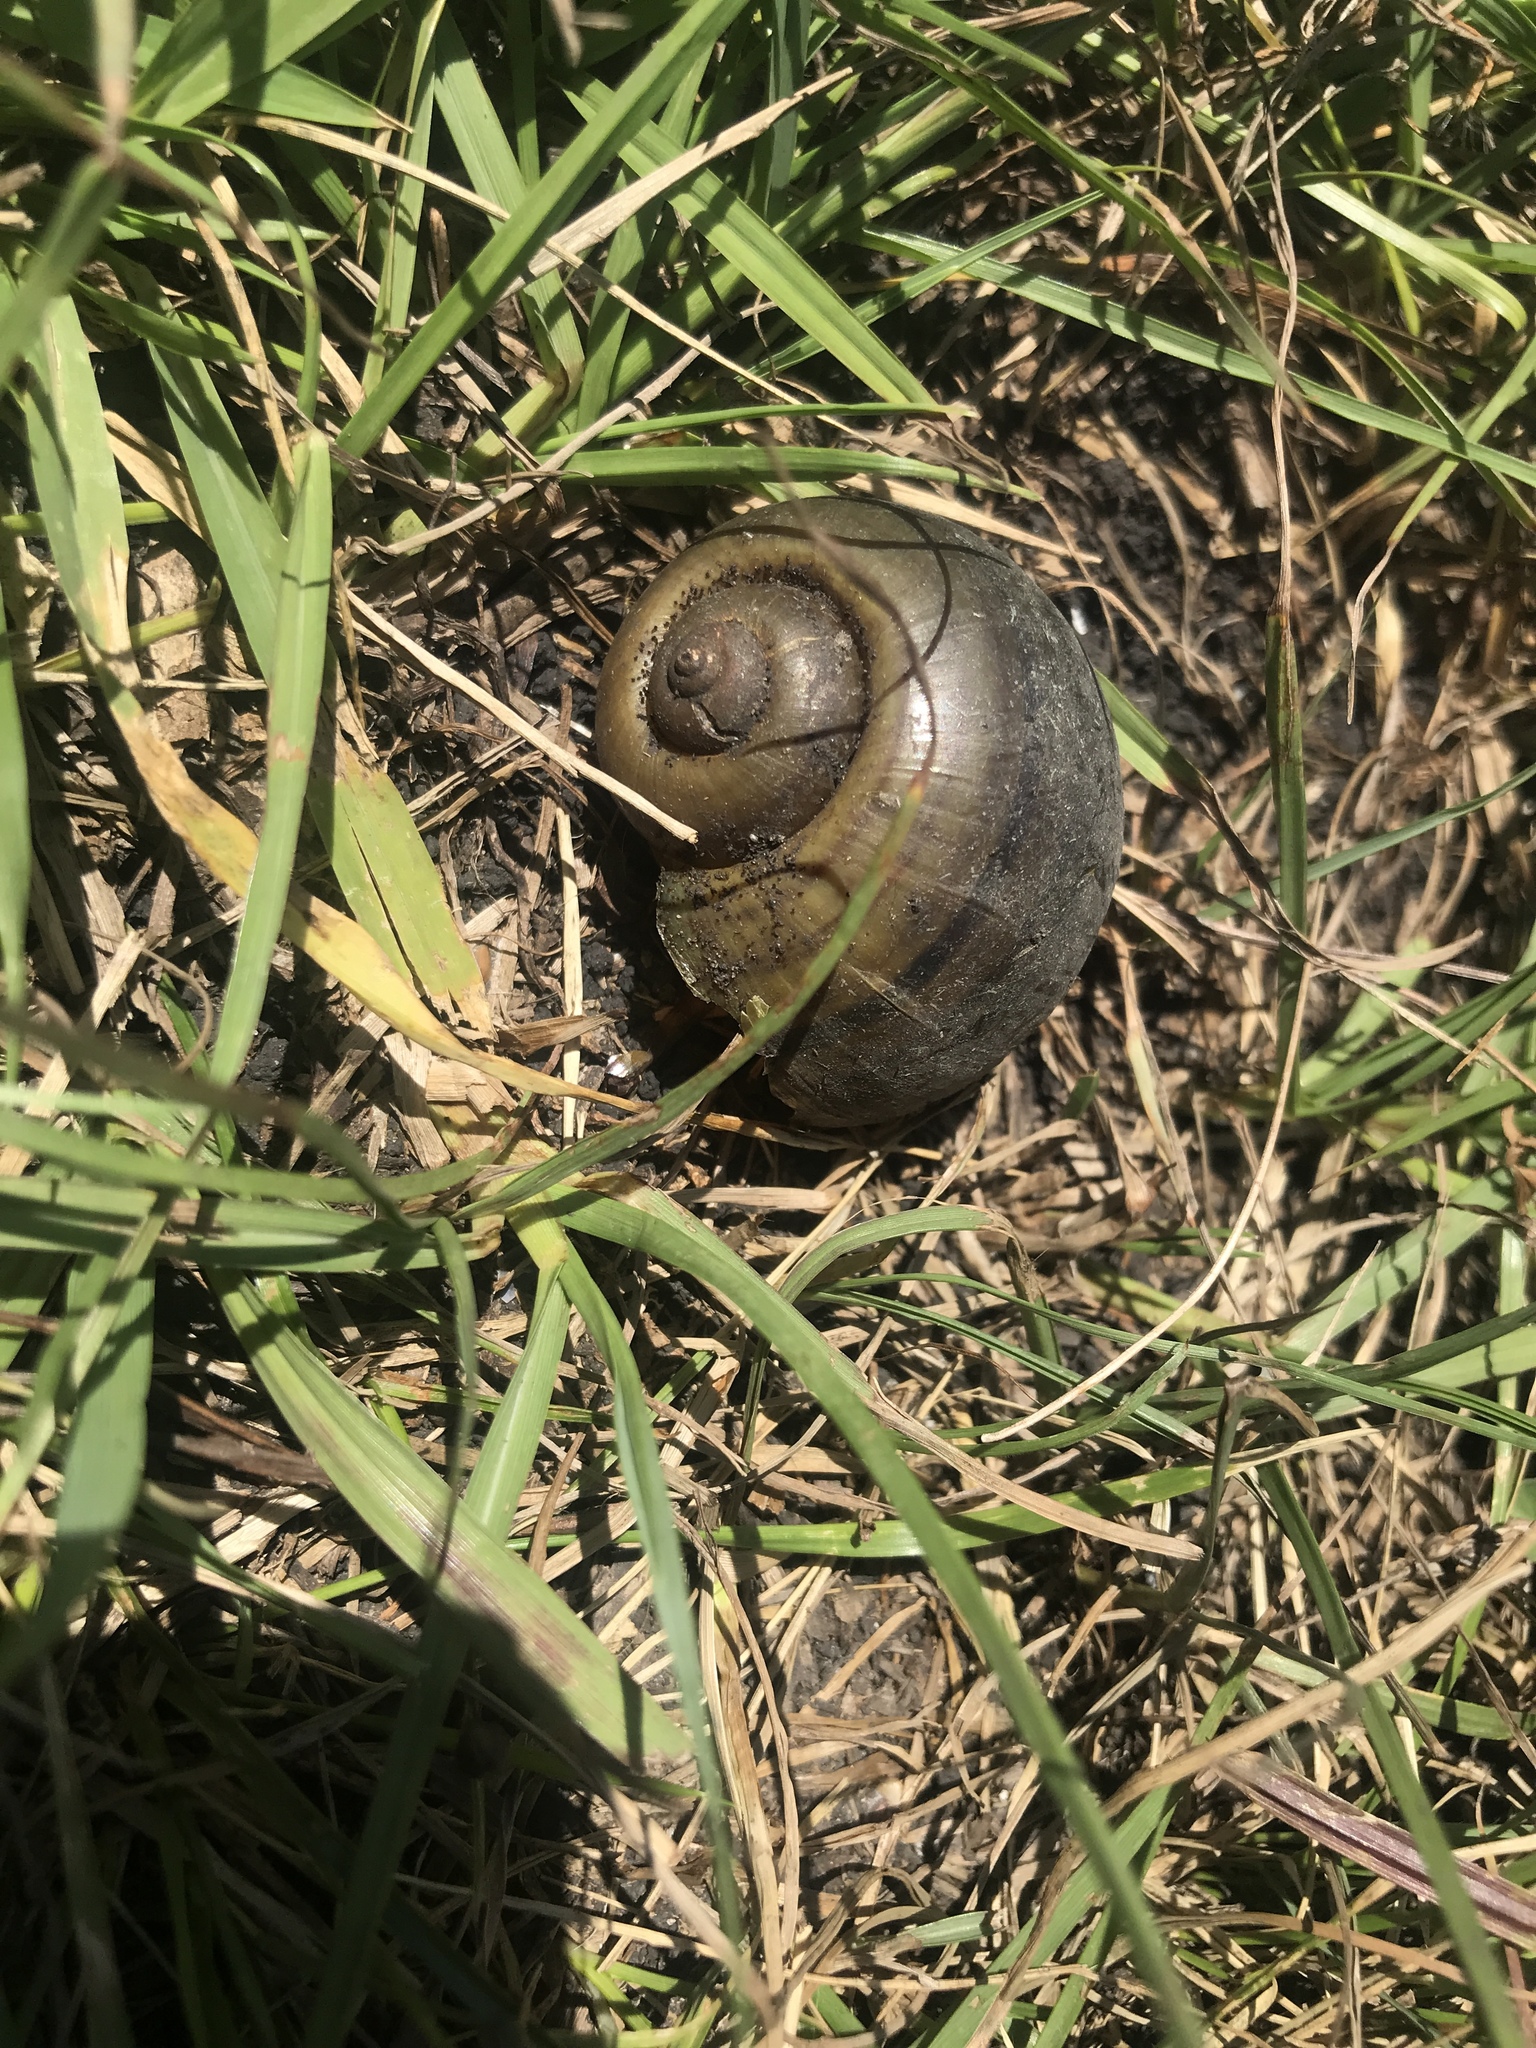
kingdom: Animalia
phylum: Mollusca
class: Gastropoda
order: Architaenioglossa
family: Ampullariidae
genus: Pomacea
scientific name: Pomacea canaliculata
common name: Channeled applesnail
